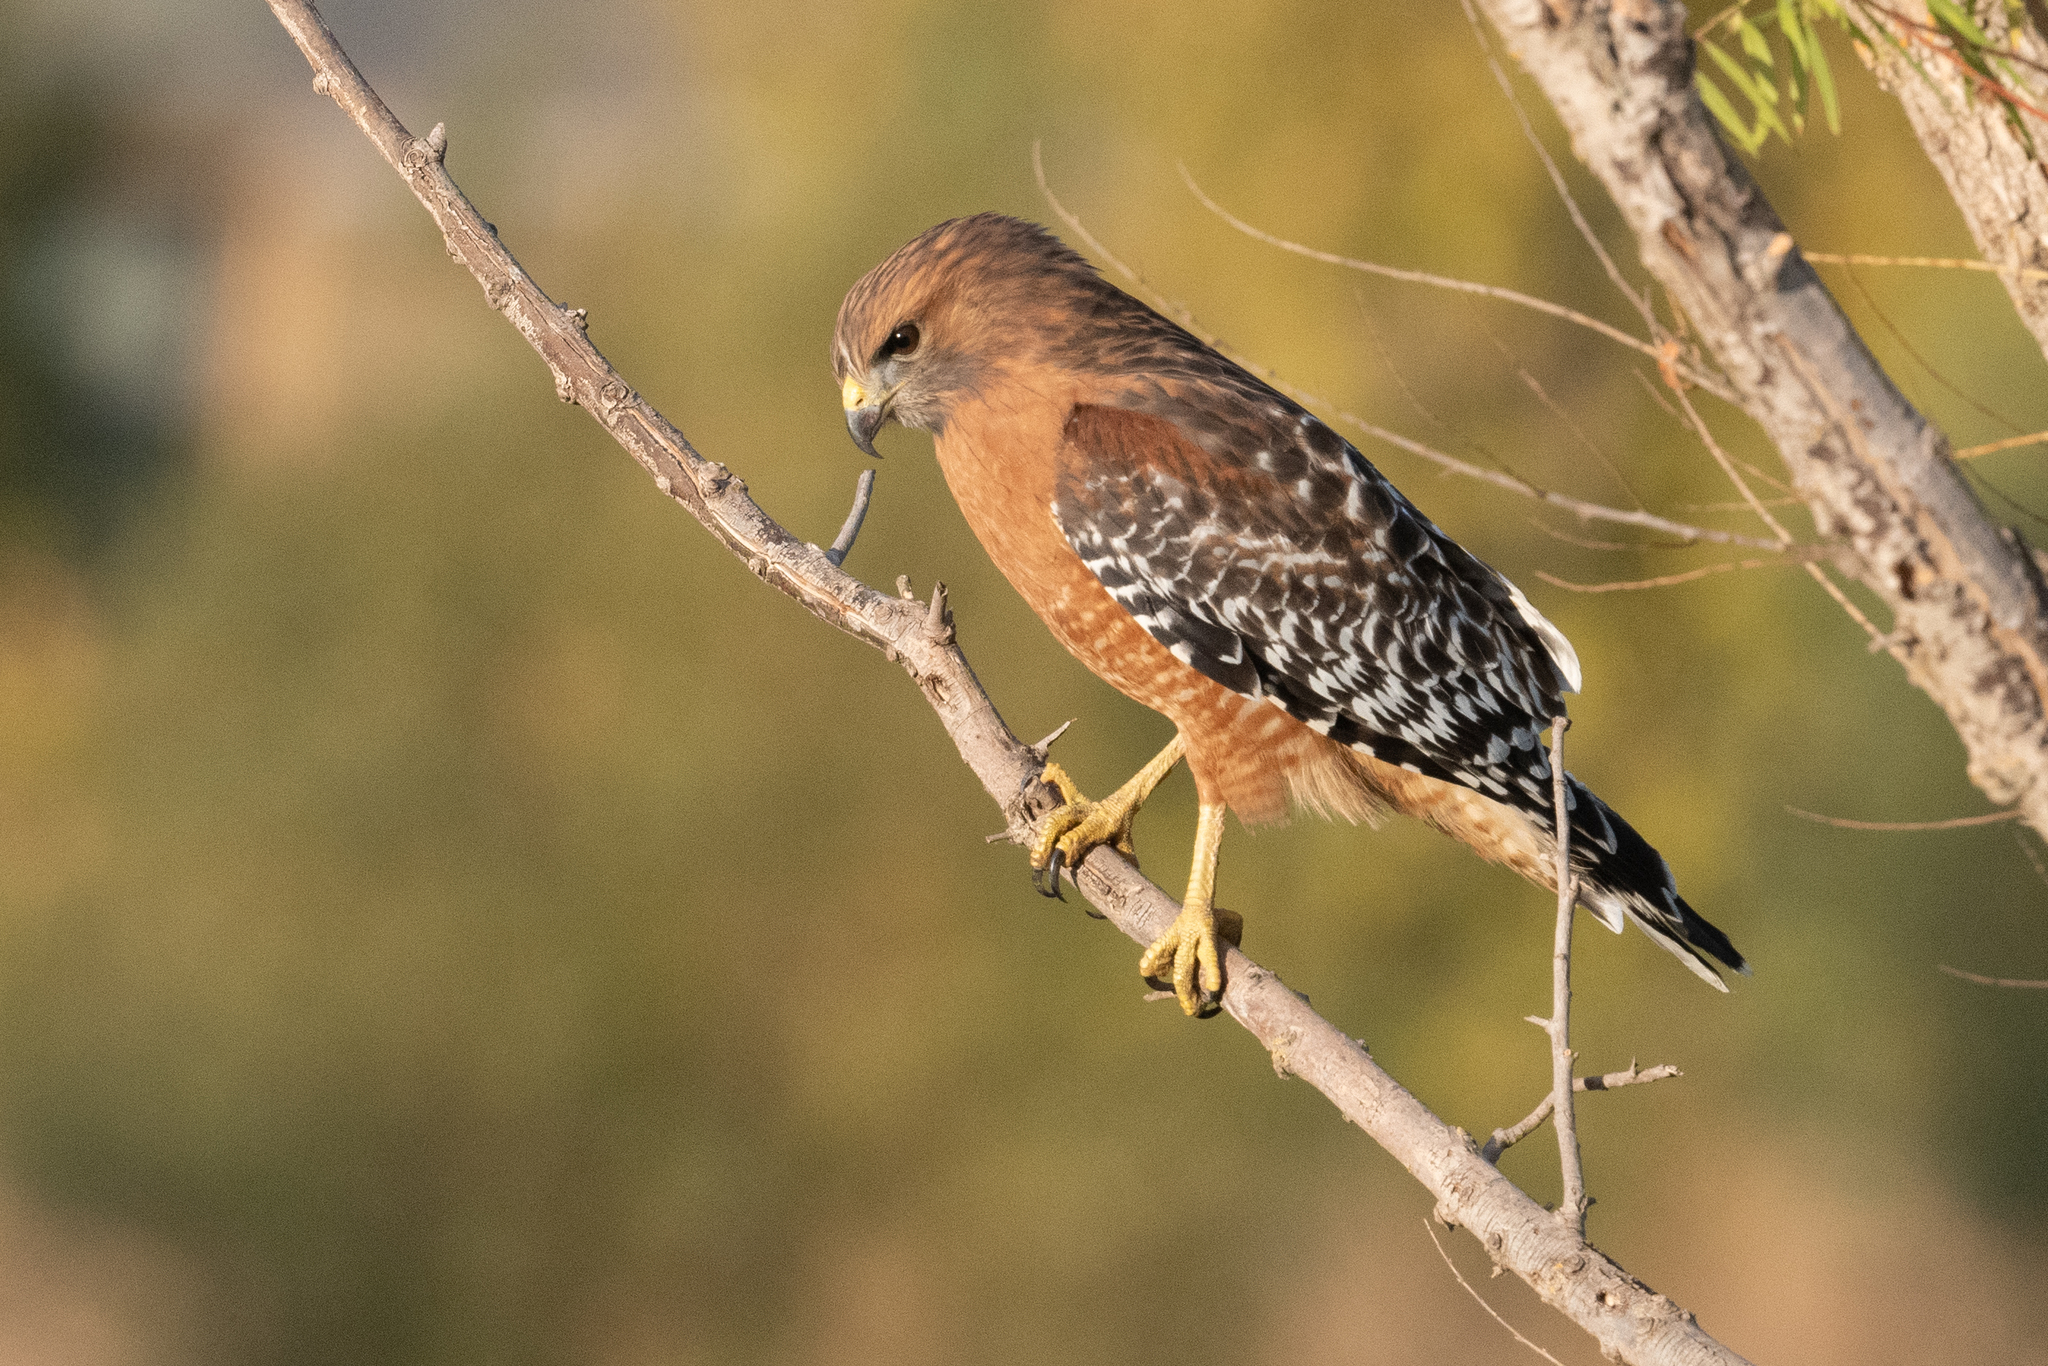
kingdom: Animalia
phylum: Chordata
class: Aves
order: Accipitriformes
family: Accipitridae
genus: Buteo
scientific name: Buteo lineatus
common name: Red-shouldered hawk
